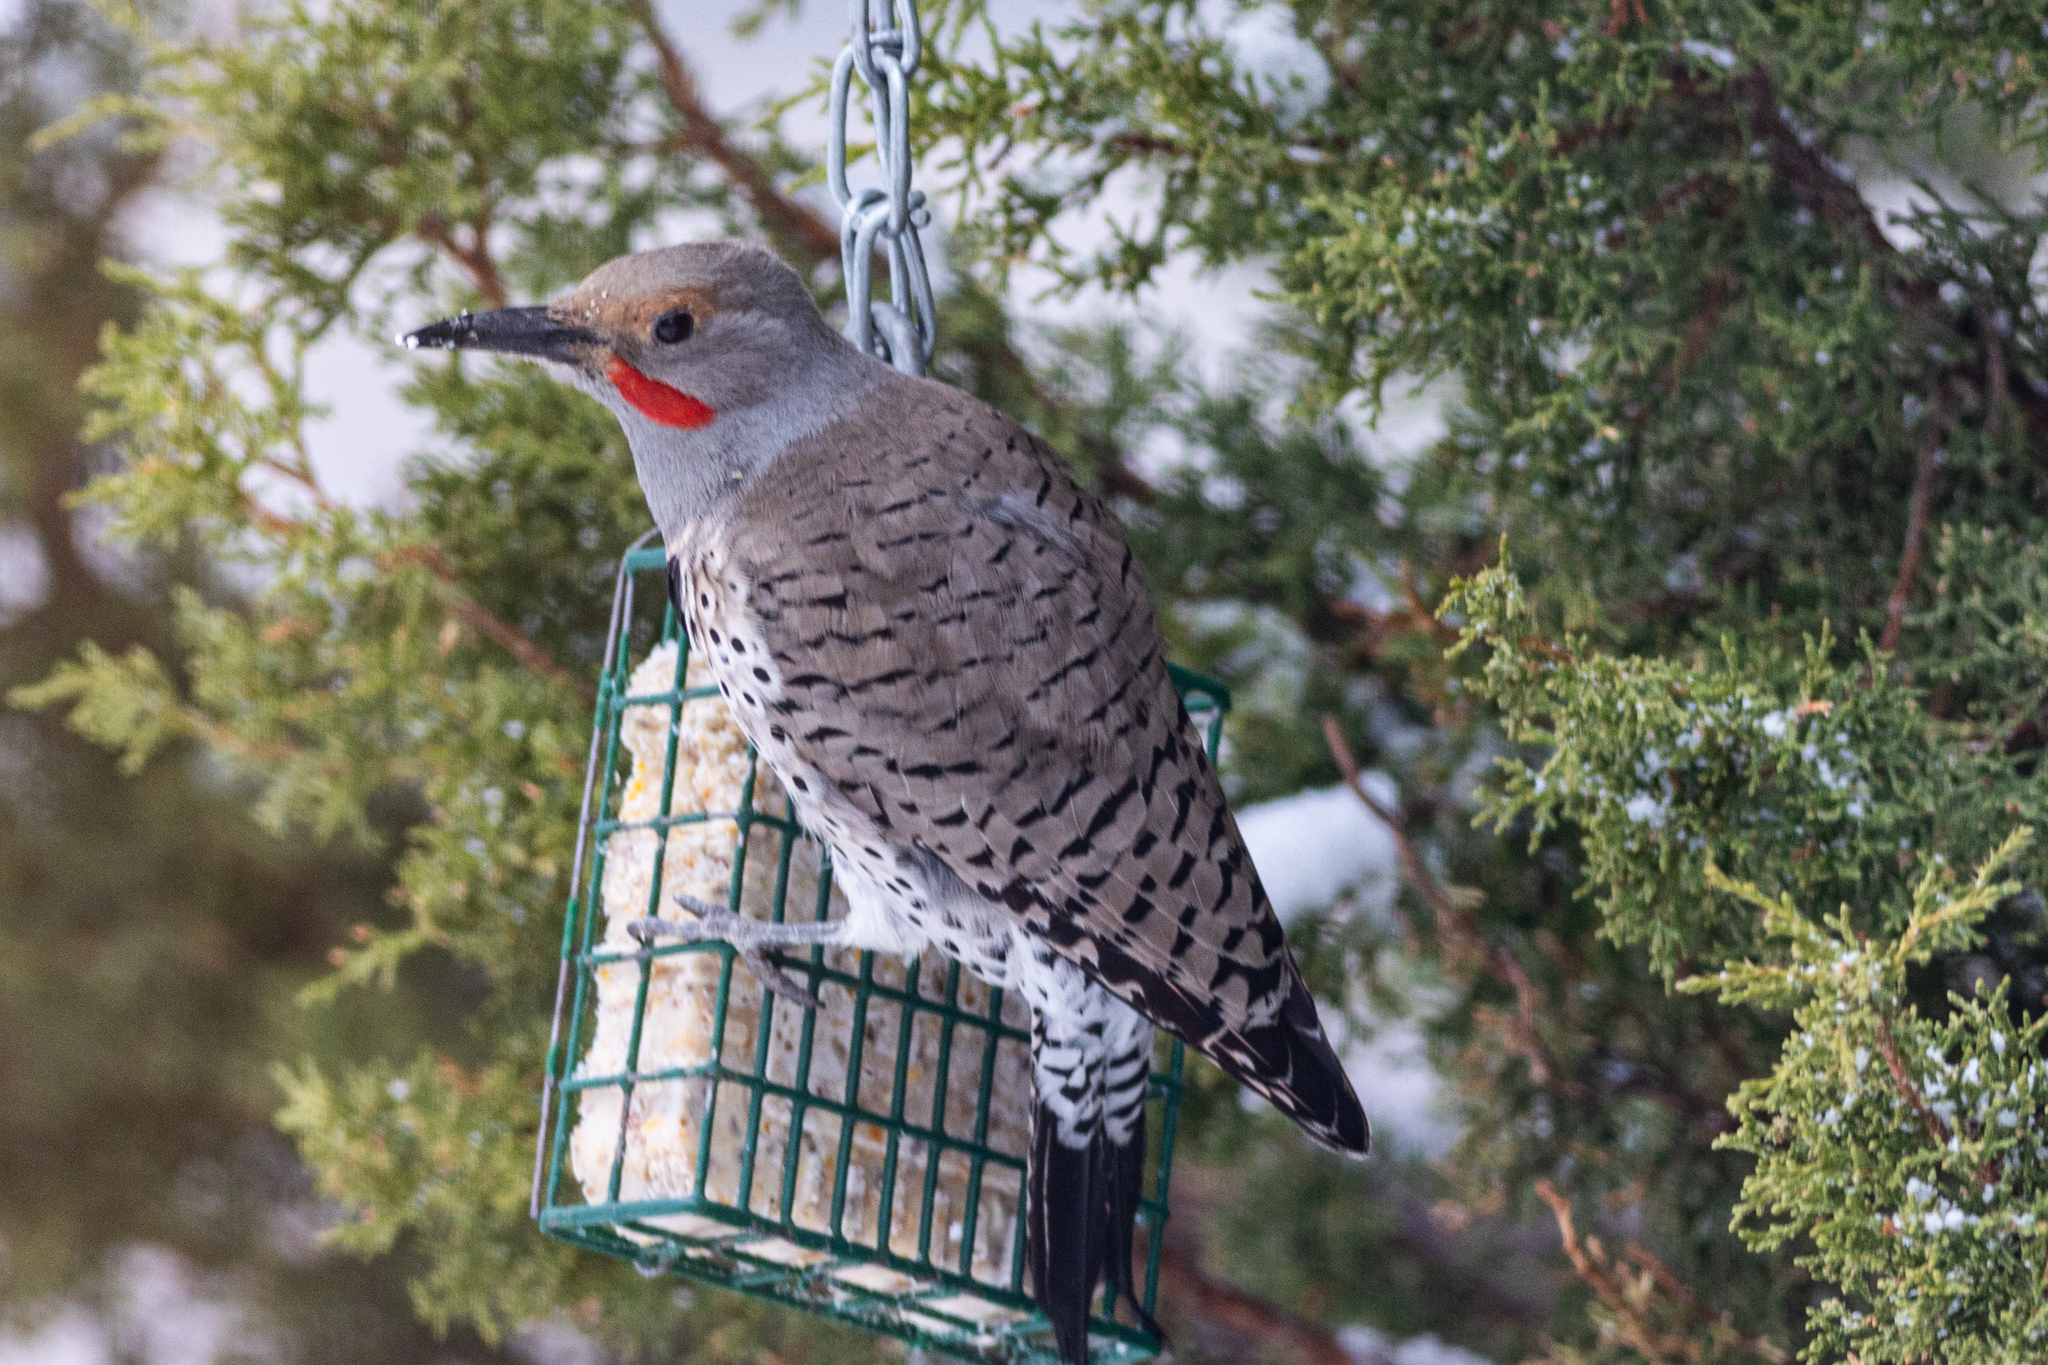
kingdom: Animalia
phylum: Chordata
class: Aves
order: Piciformes
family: Picidae
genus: Colaptes
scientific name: Colaptes auratus
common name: Northern flicker
